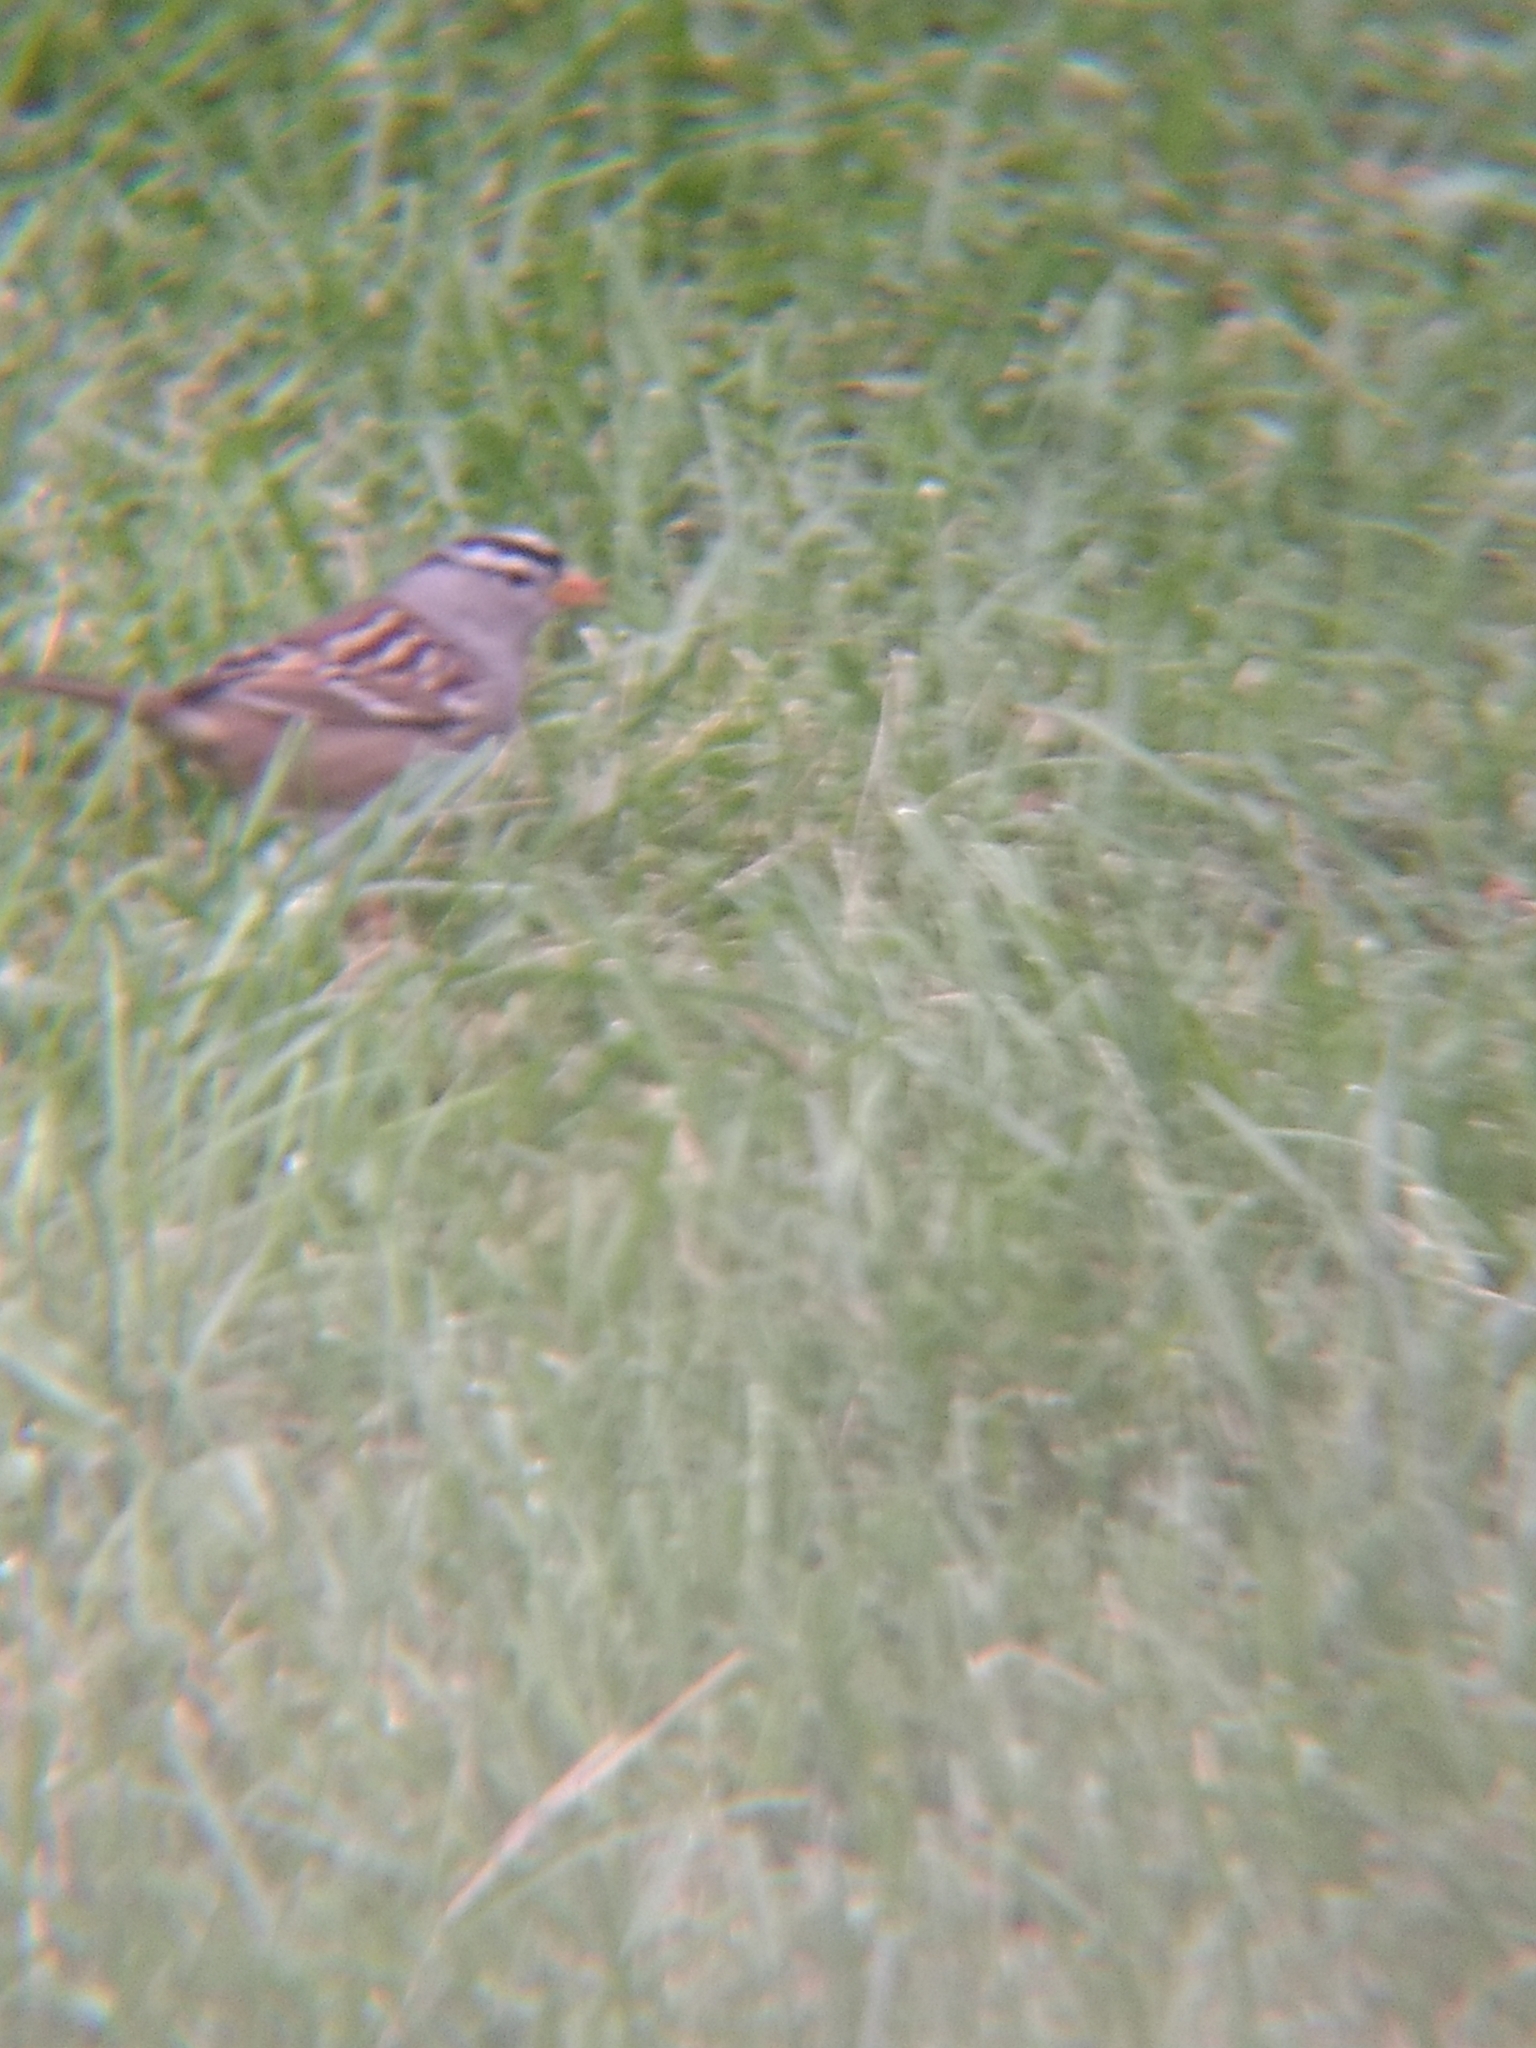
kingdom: Animalia
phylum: Chordata
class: Aves
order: Passeriformes
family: Passerellidae
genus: Zonotrichia
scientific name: Zonotrichia leucophrys
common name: White-crowned sparrow
